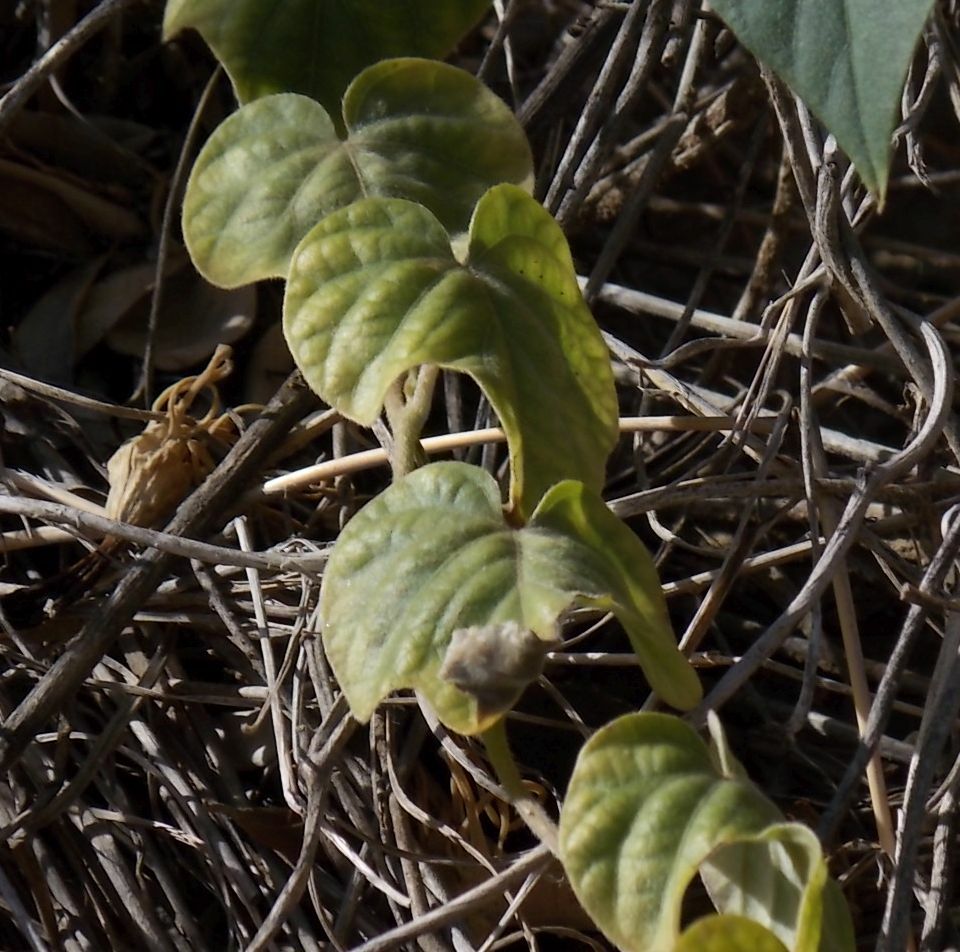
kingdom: Plantae
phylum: Tracheophyta
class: Magnoliopsida
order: Solanales
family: Convolvulaceae
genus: Ipomoea
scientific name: Ipomoea indica
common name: Blue dawnflower
